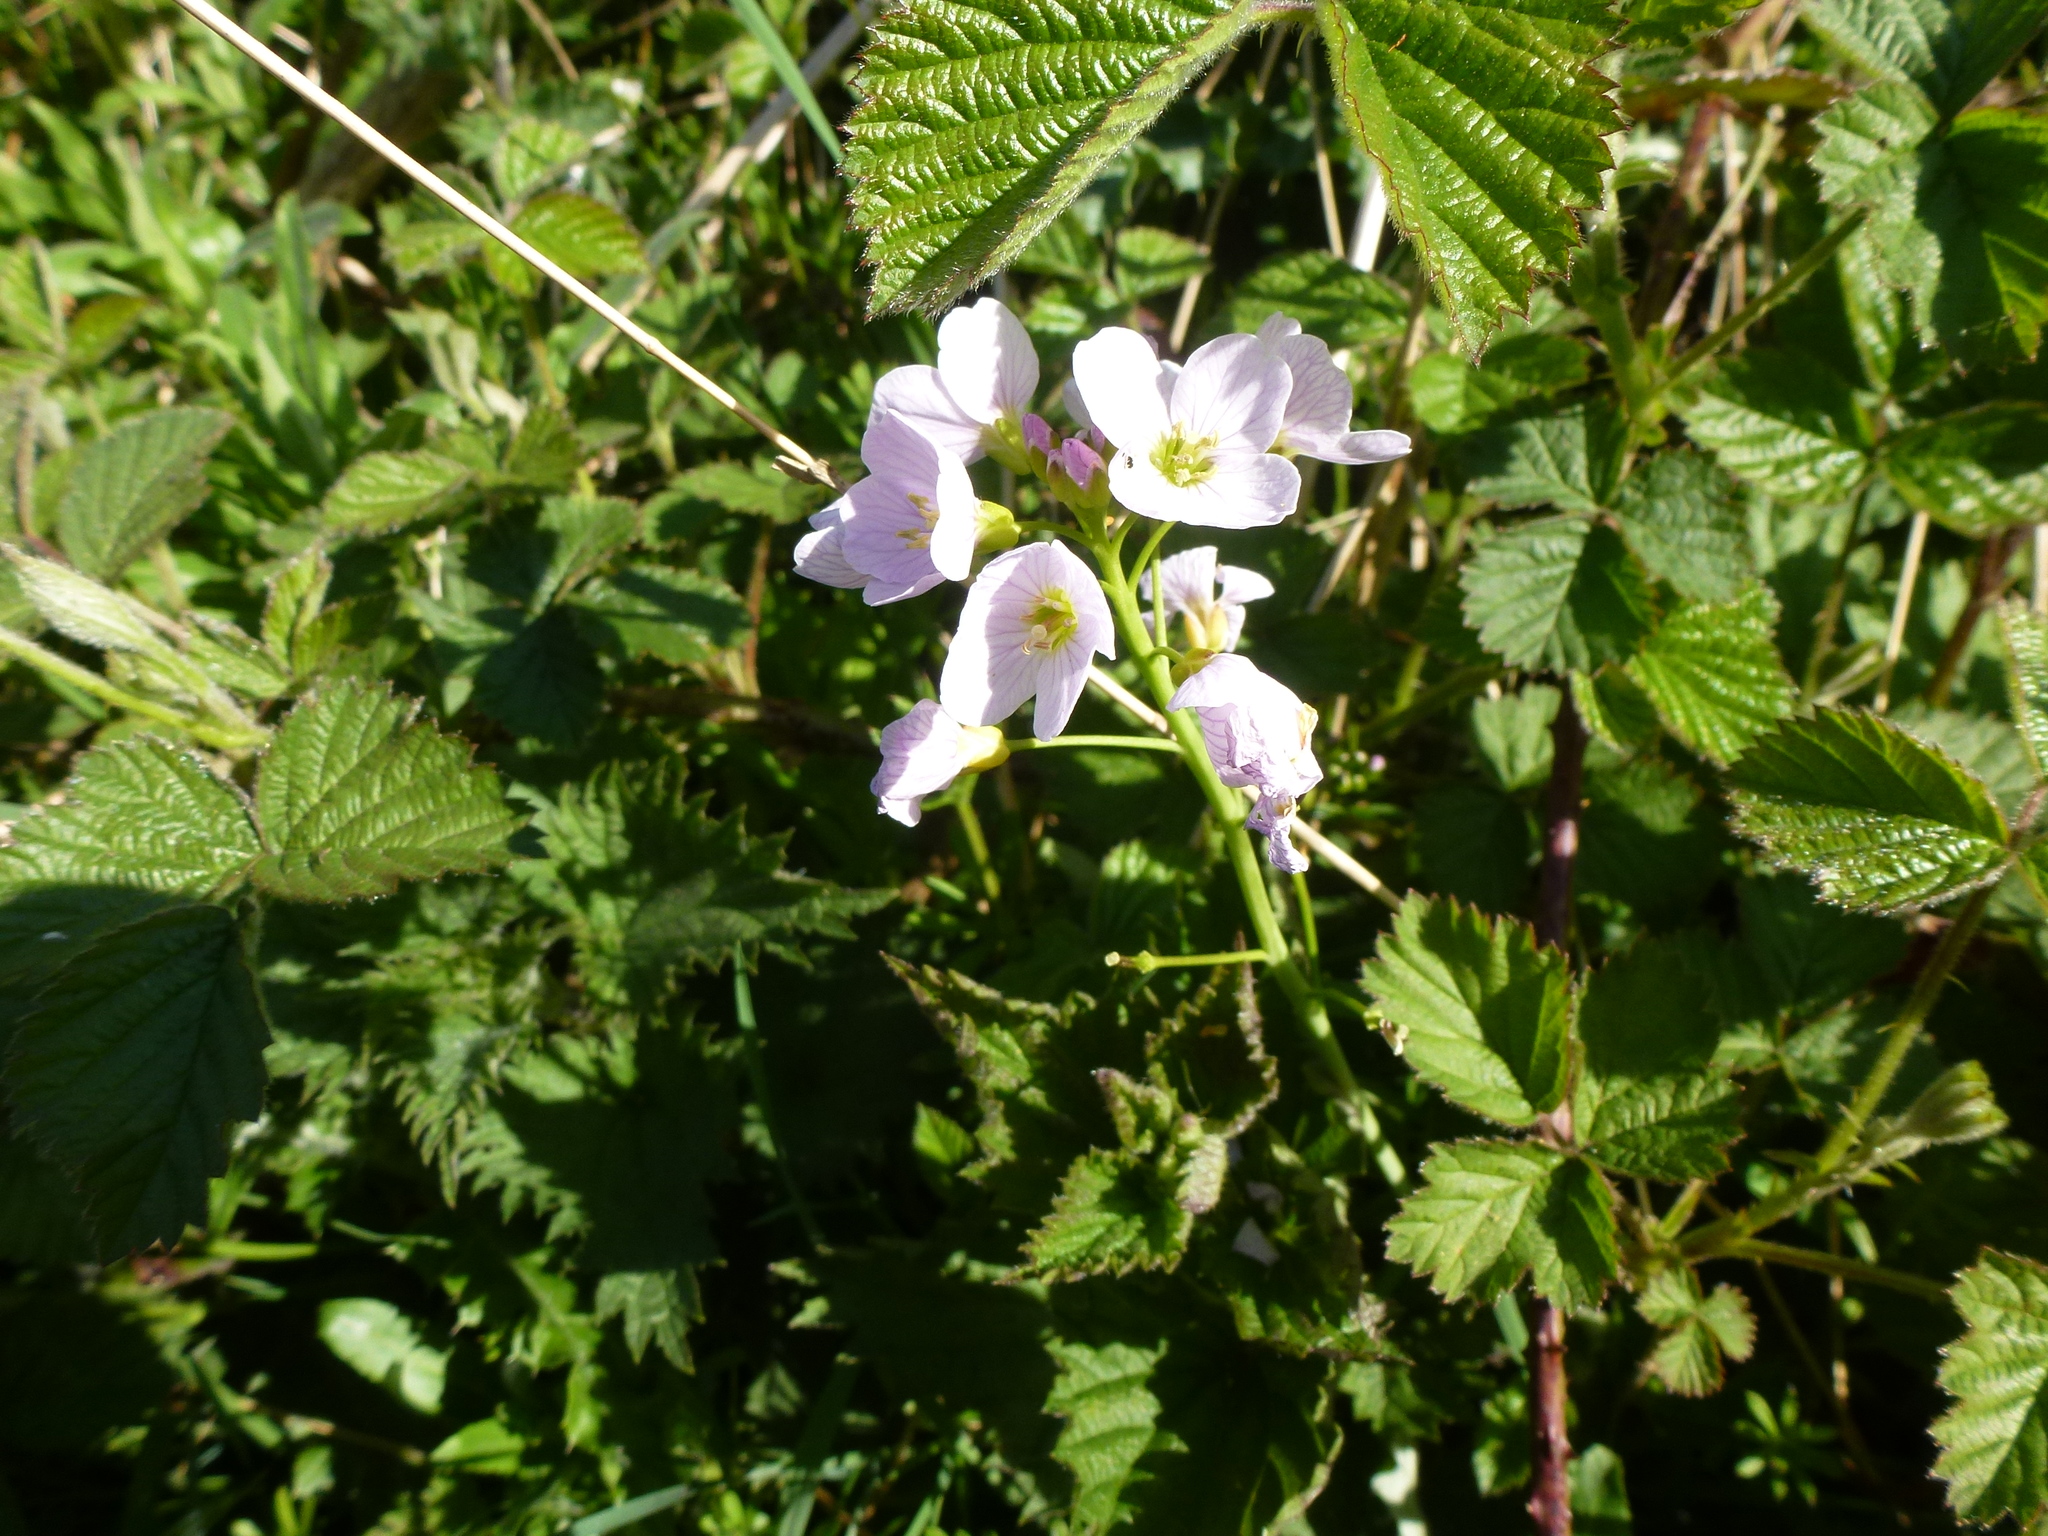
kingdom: Plantae
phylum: Tracheophyta
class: Magnoliopsida
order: Brassicales
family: Brassicaceae
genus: Cardamine
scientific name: Cardamine pratensis
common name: Cuckoo flower
